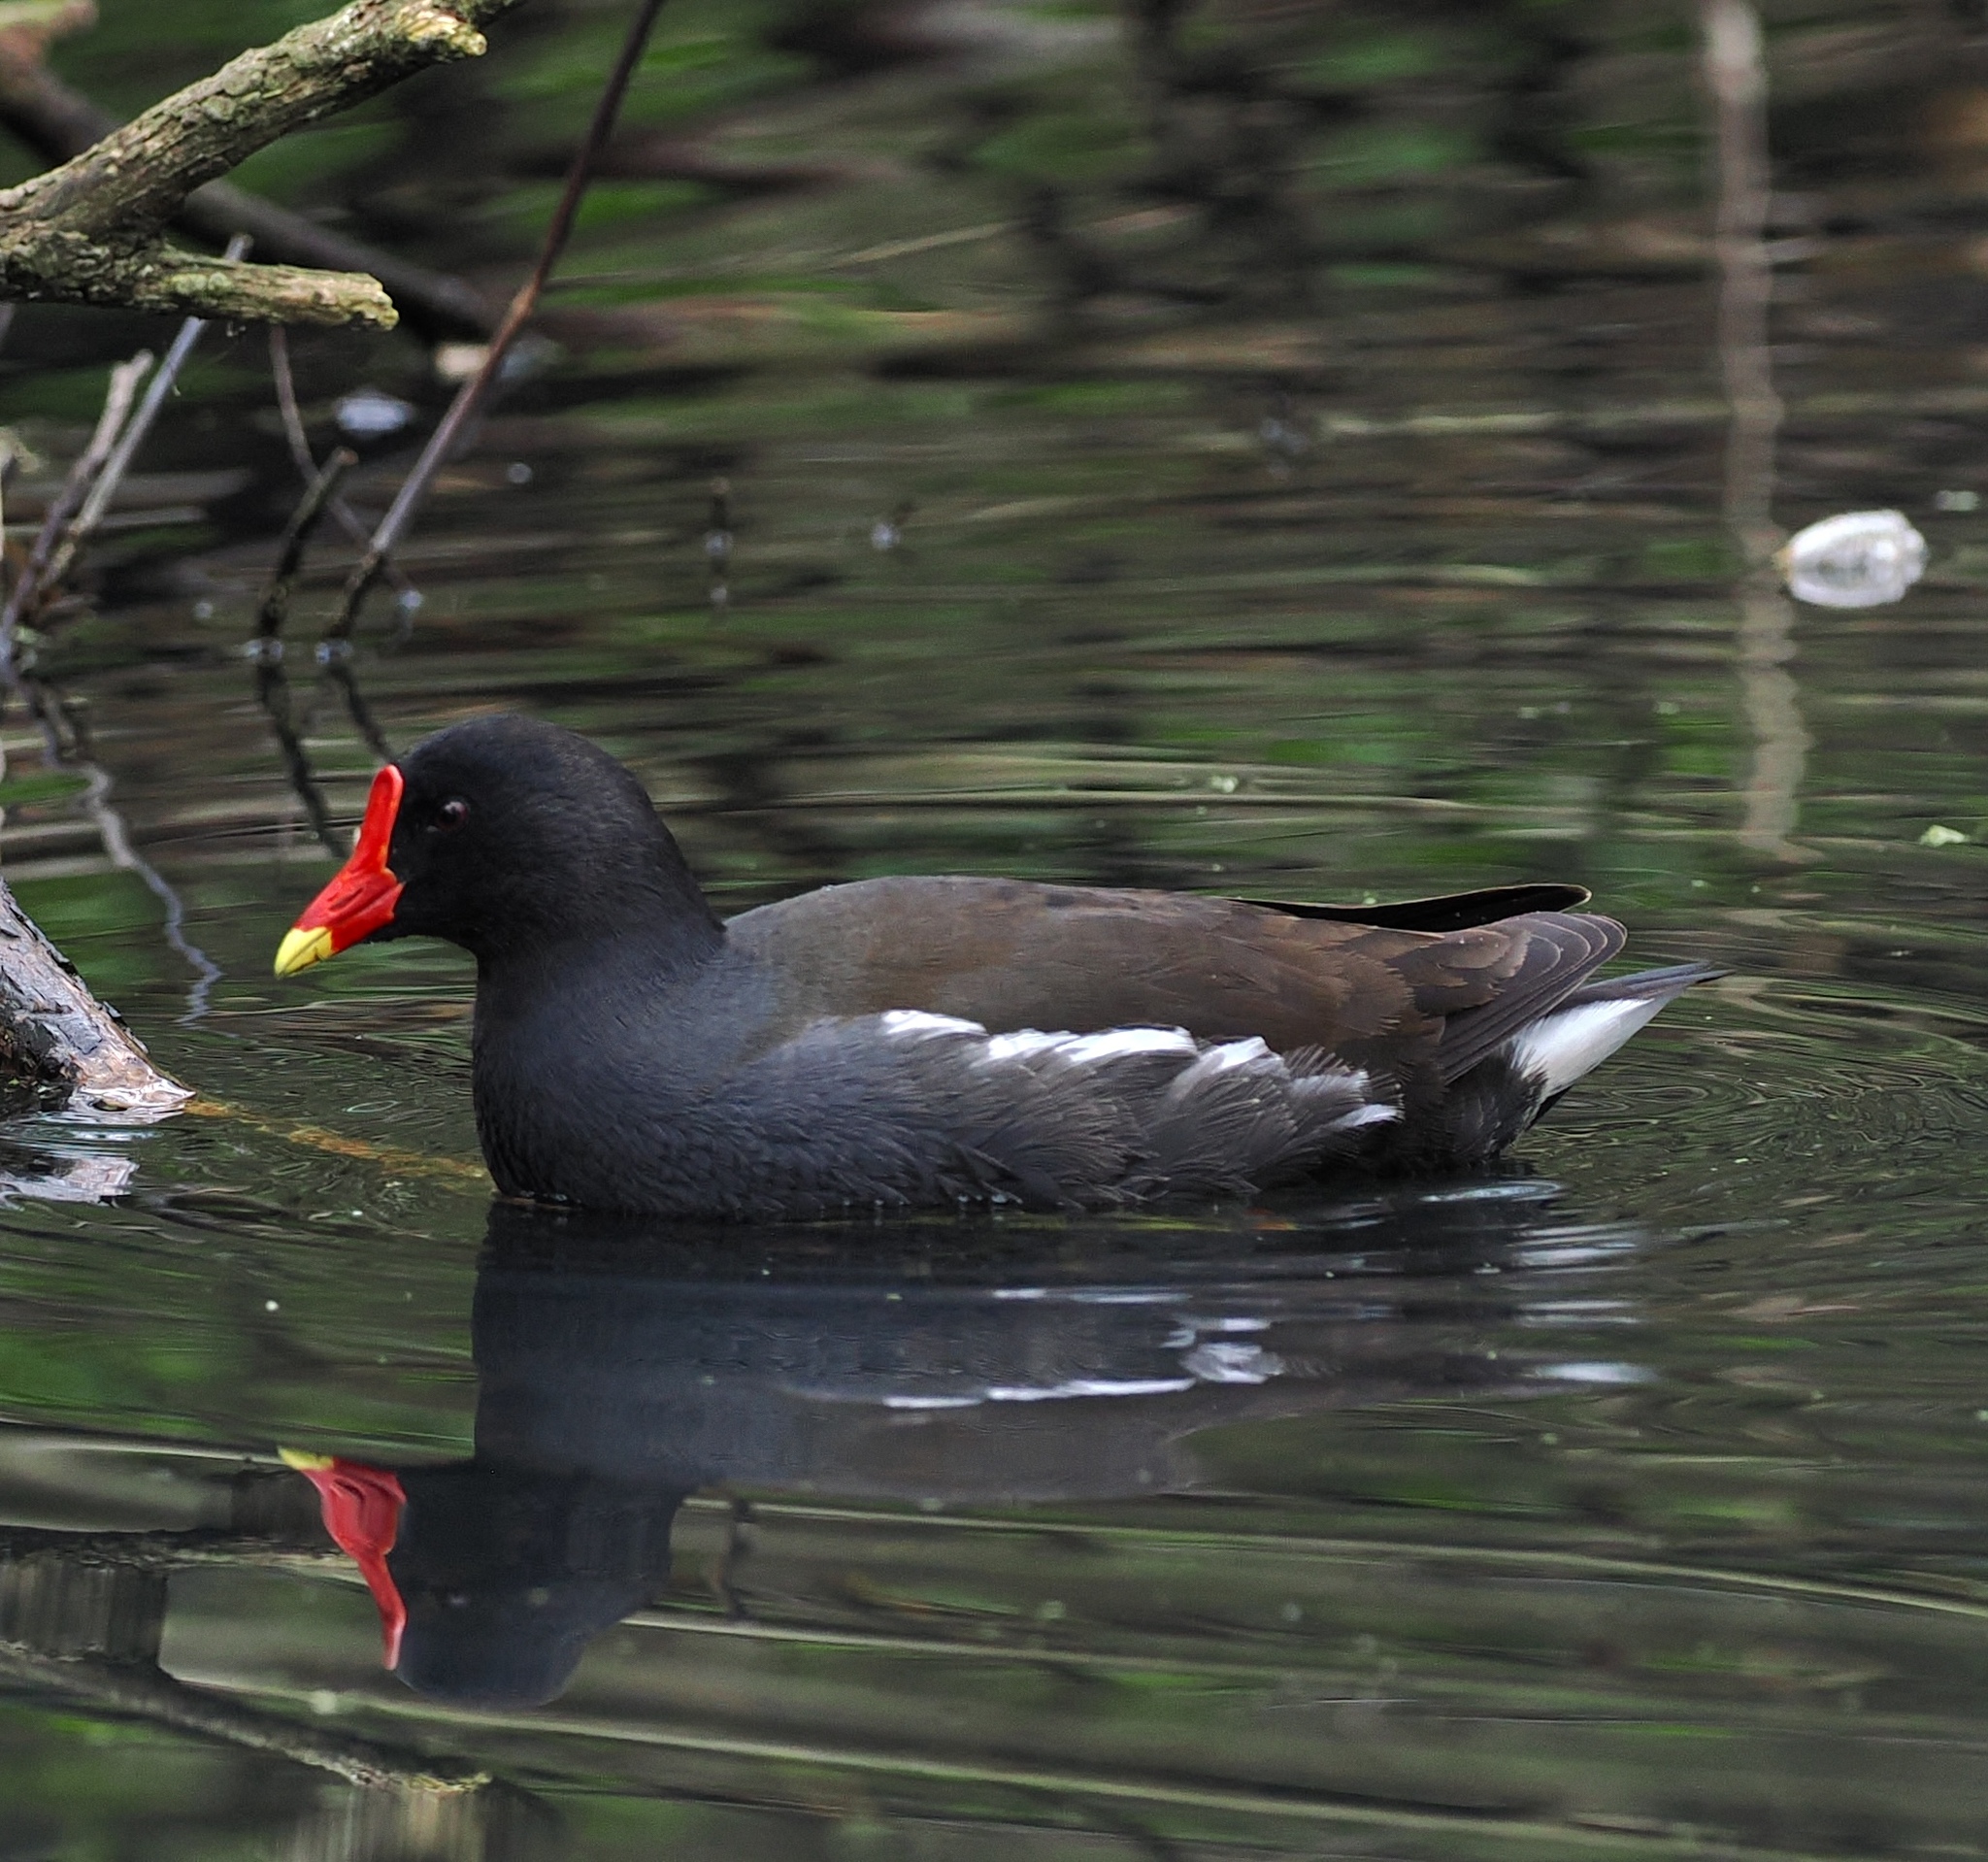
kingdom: Animalia
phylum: Chordata
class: Aves
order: Gruiformes
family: Rallidae
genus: Gallinula
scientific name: Gallinula chloropus
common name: Common moorhen
